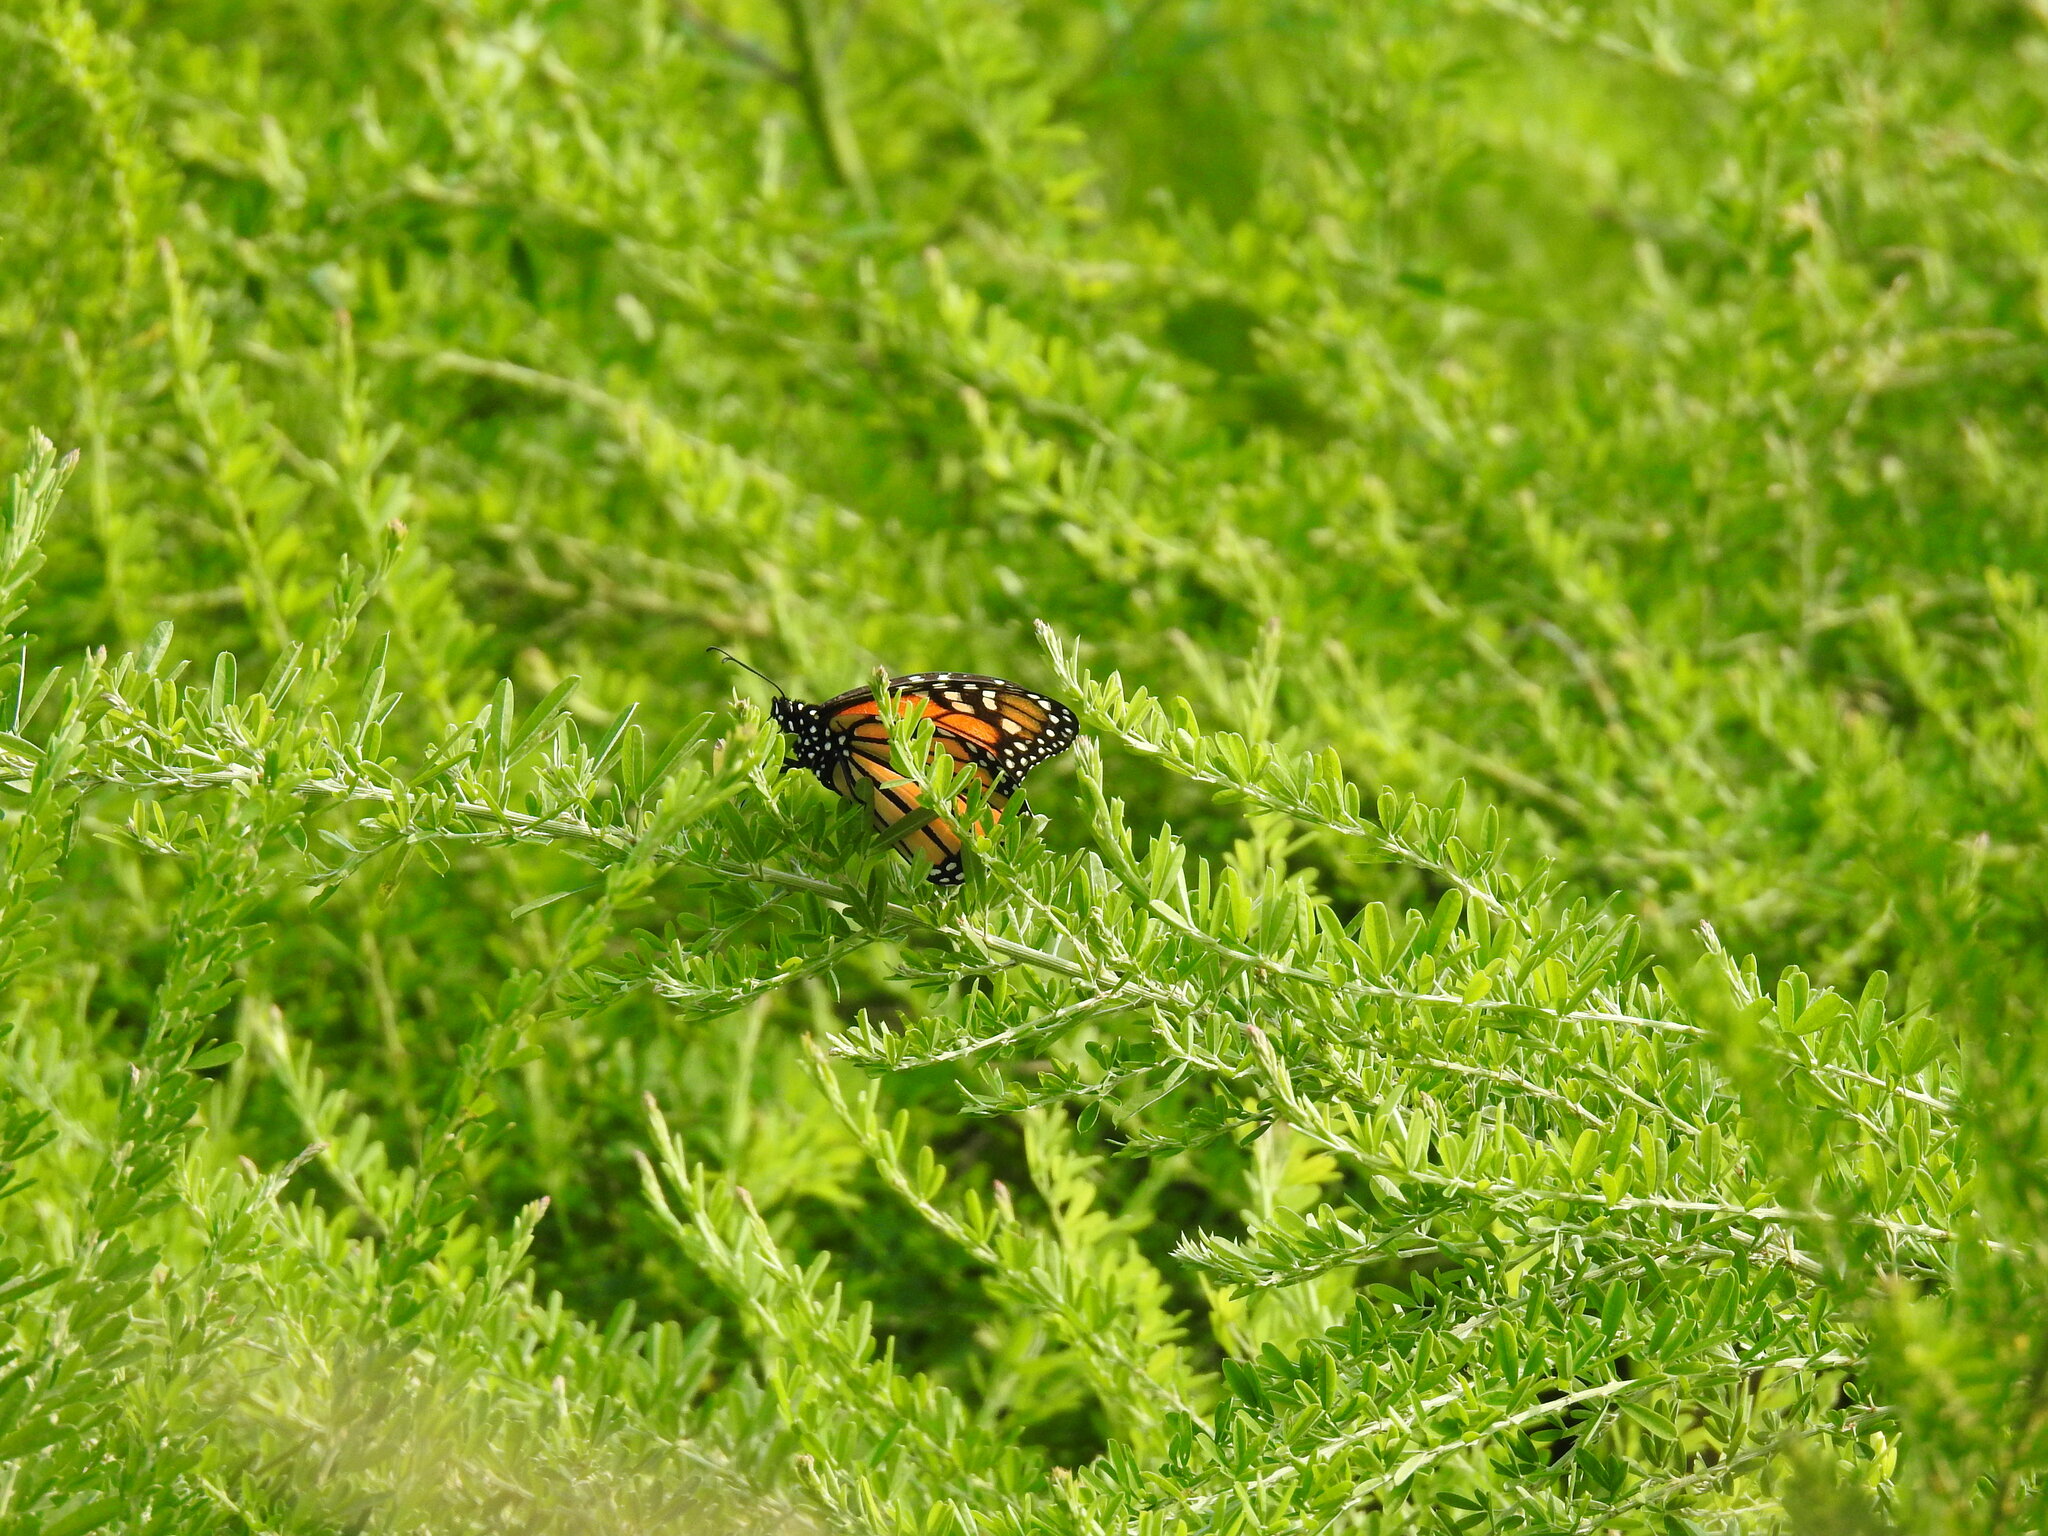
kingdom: Animalia
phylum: Arthropoda
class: Insecta
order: Lepidoptera
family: Nymphalidae
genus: Danaus
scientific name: Danaus plexippus
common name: Monarch
